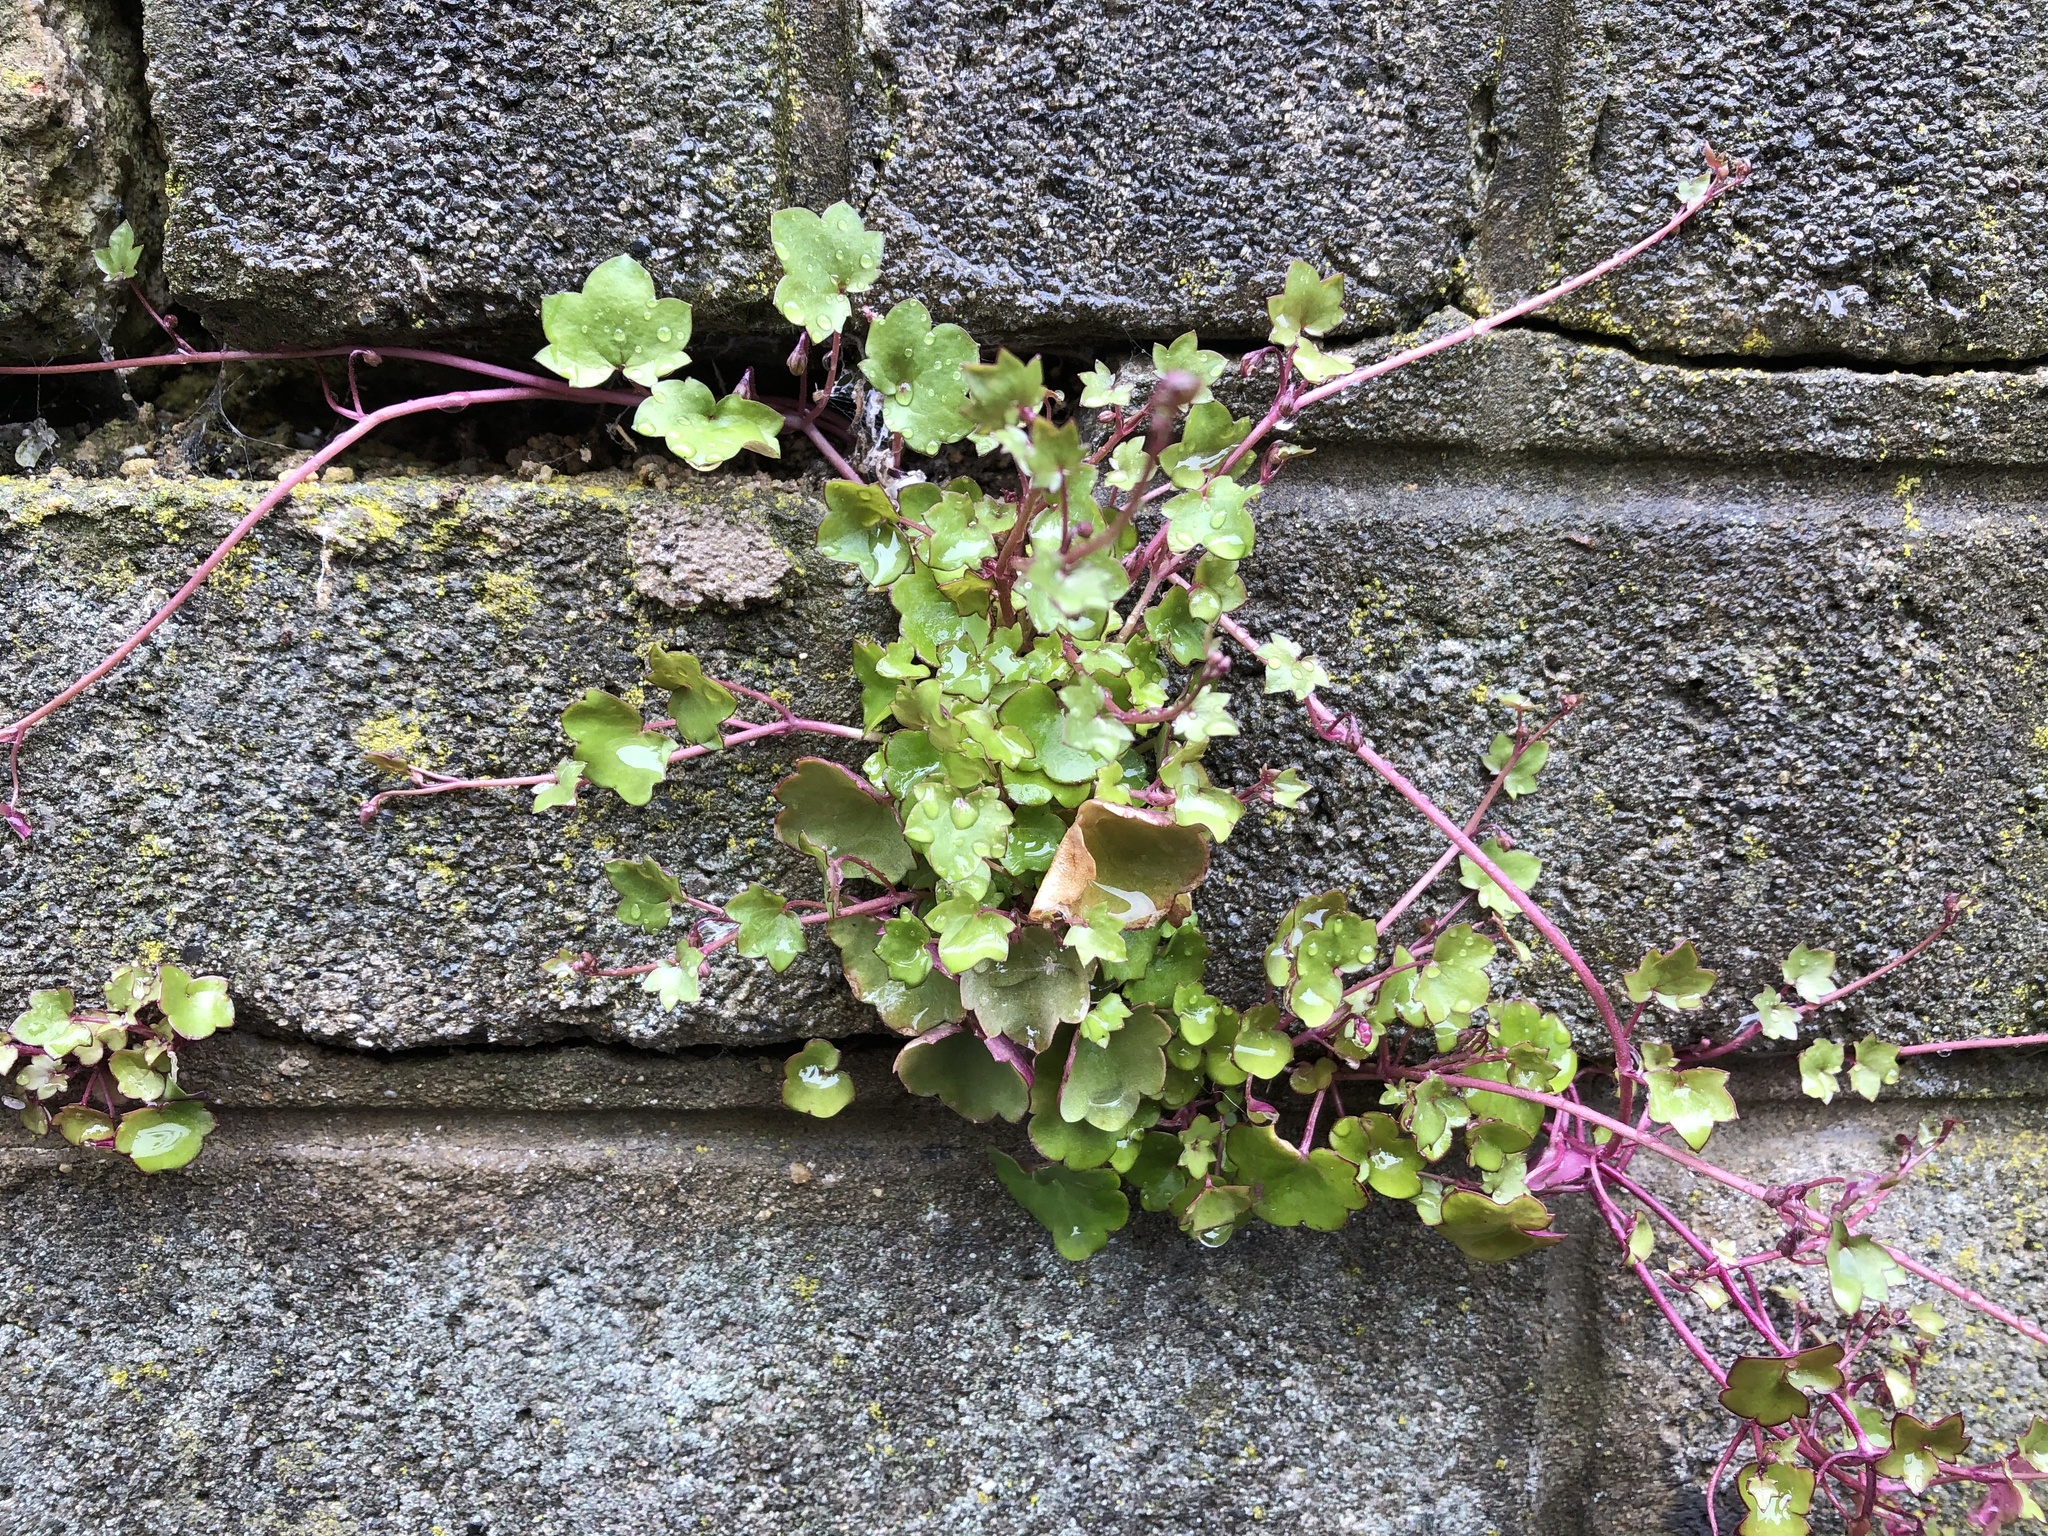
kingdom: Plantae
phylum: Tracheophyta
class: Magnoliopsida
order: Lamiales
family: Plantaginaceae
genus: Cymbalaria
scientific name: Cymbalaria muralis
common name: Ivy-leaved toadflax
